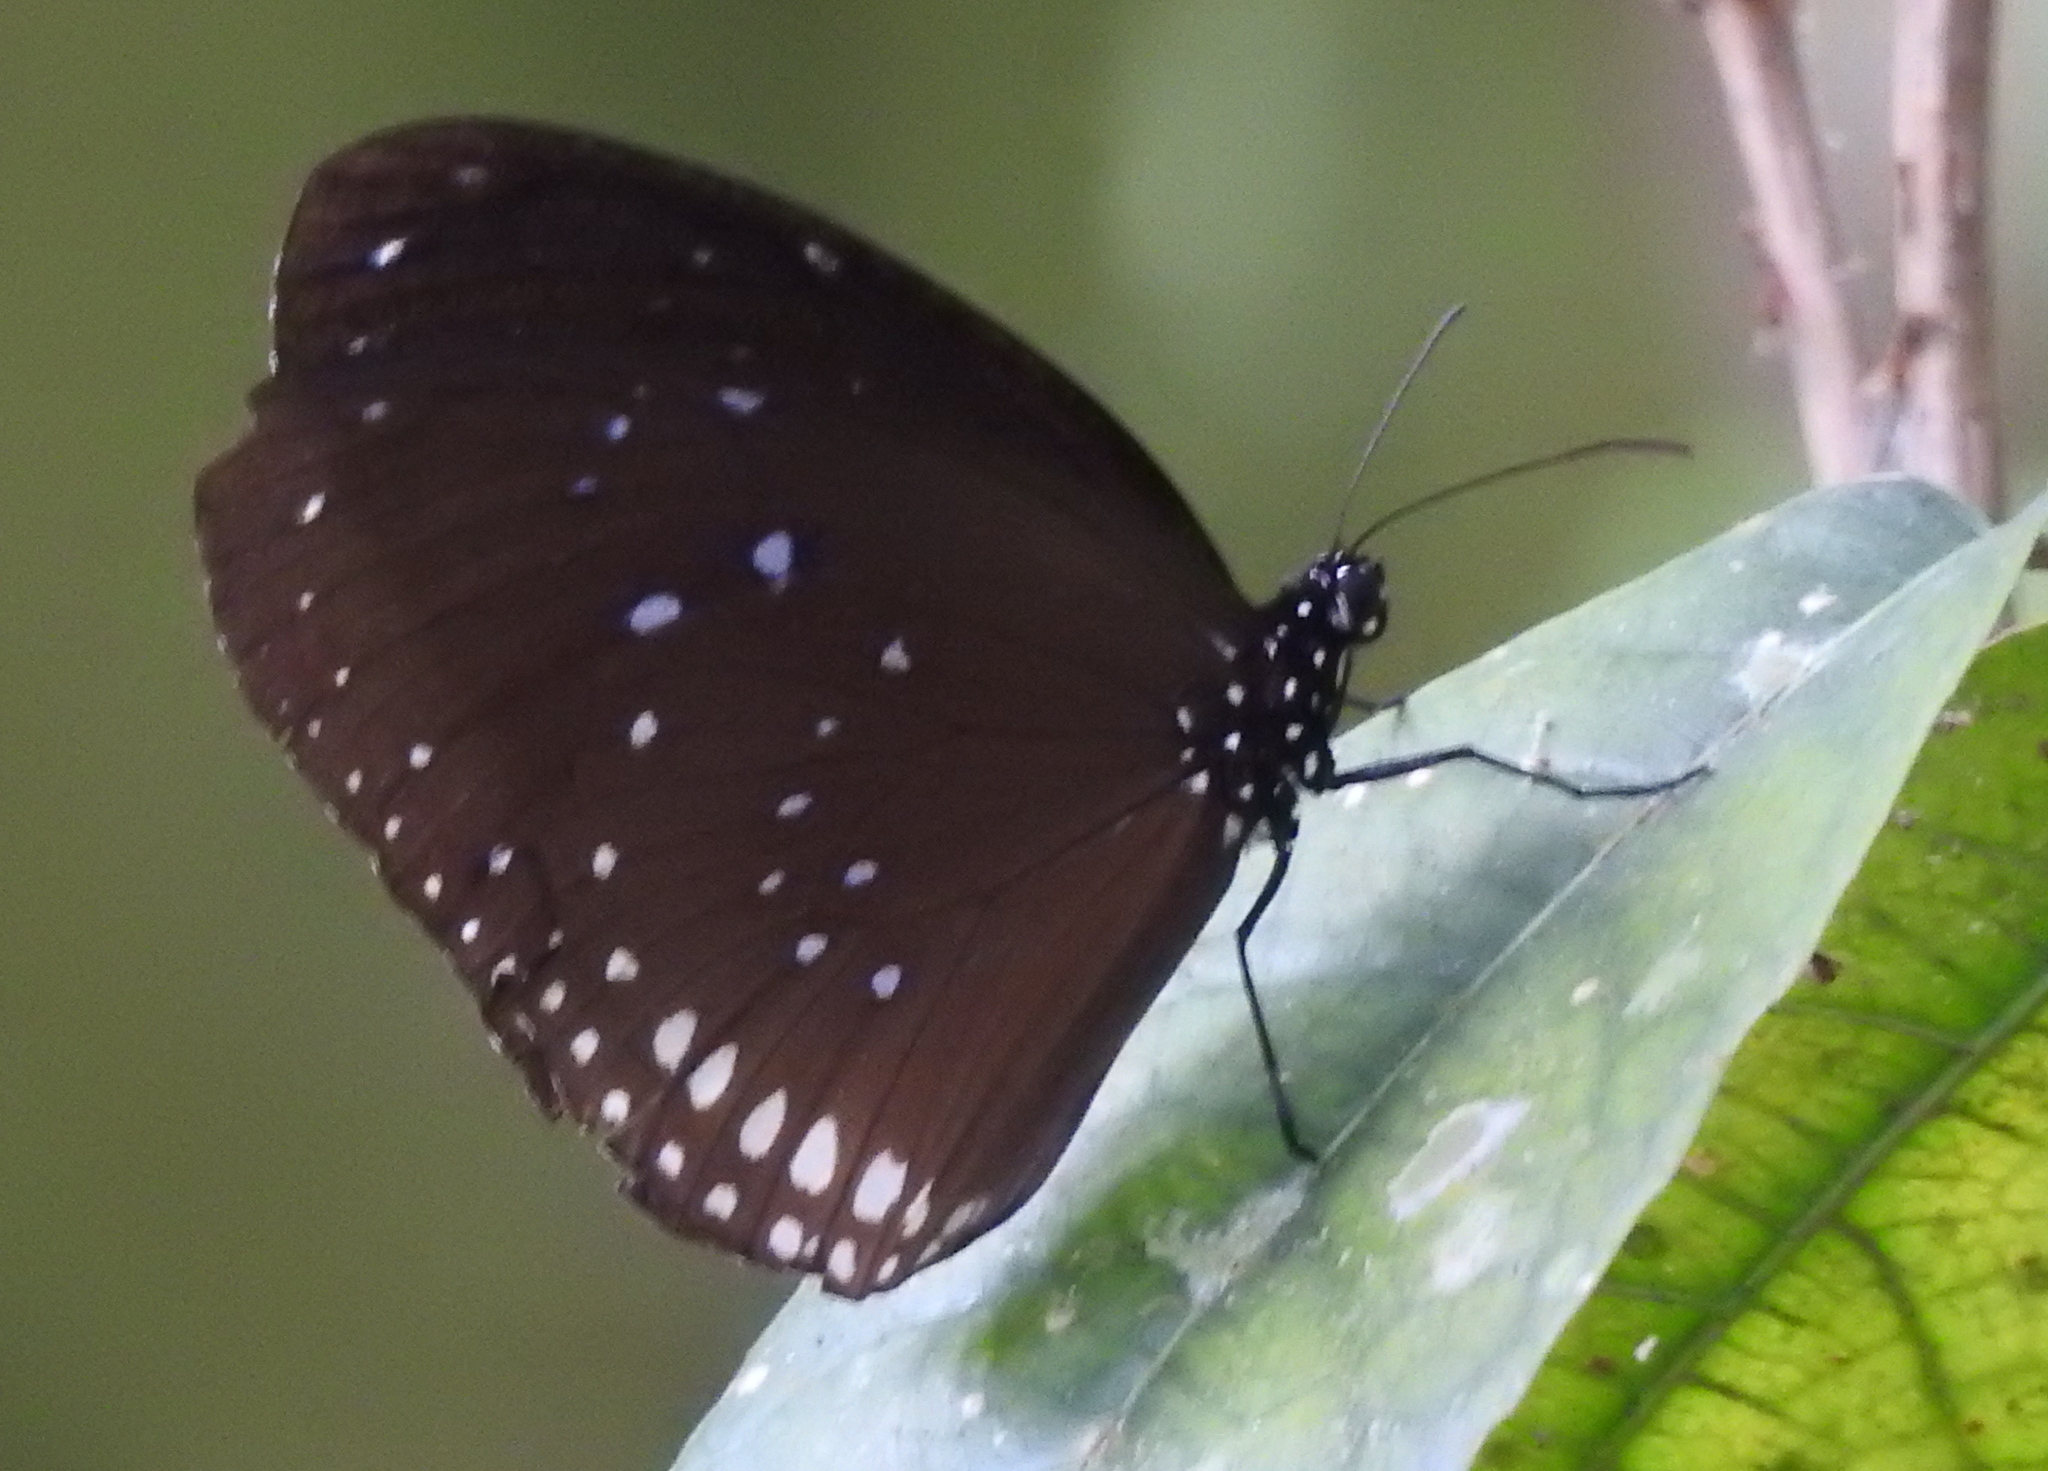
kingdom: Animalia
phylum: Arthropoda
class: Insecta
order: Lepidoptera
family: Nymphalidae
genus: Euploea
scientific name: Euploea sylvester
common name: Double-branded crow butterfly
